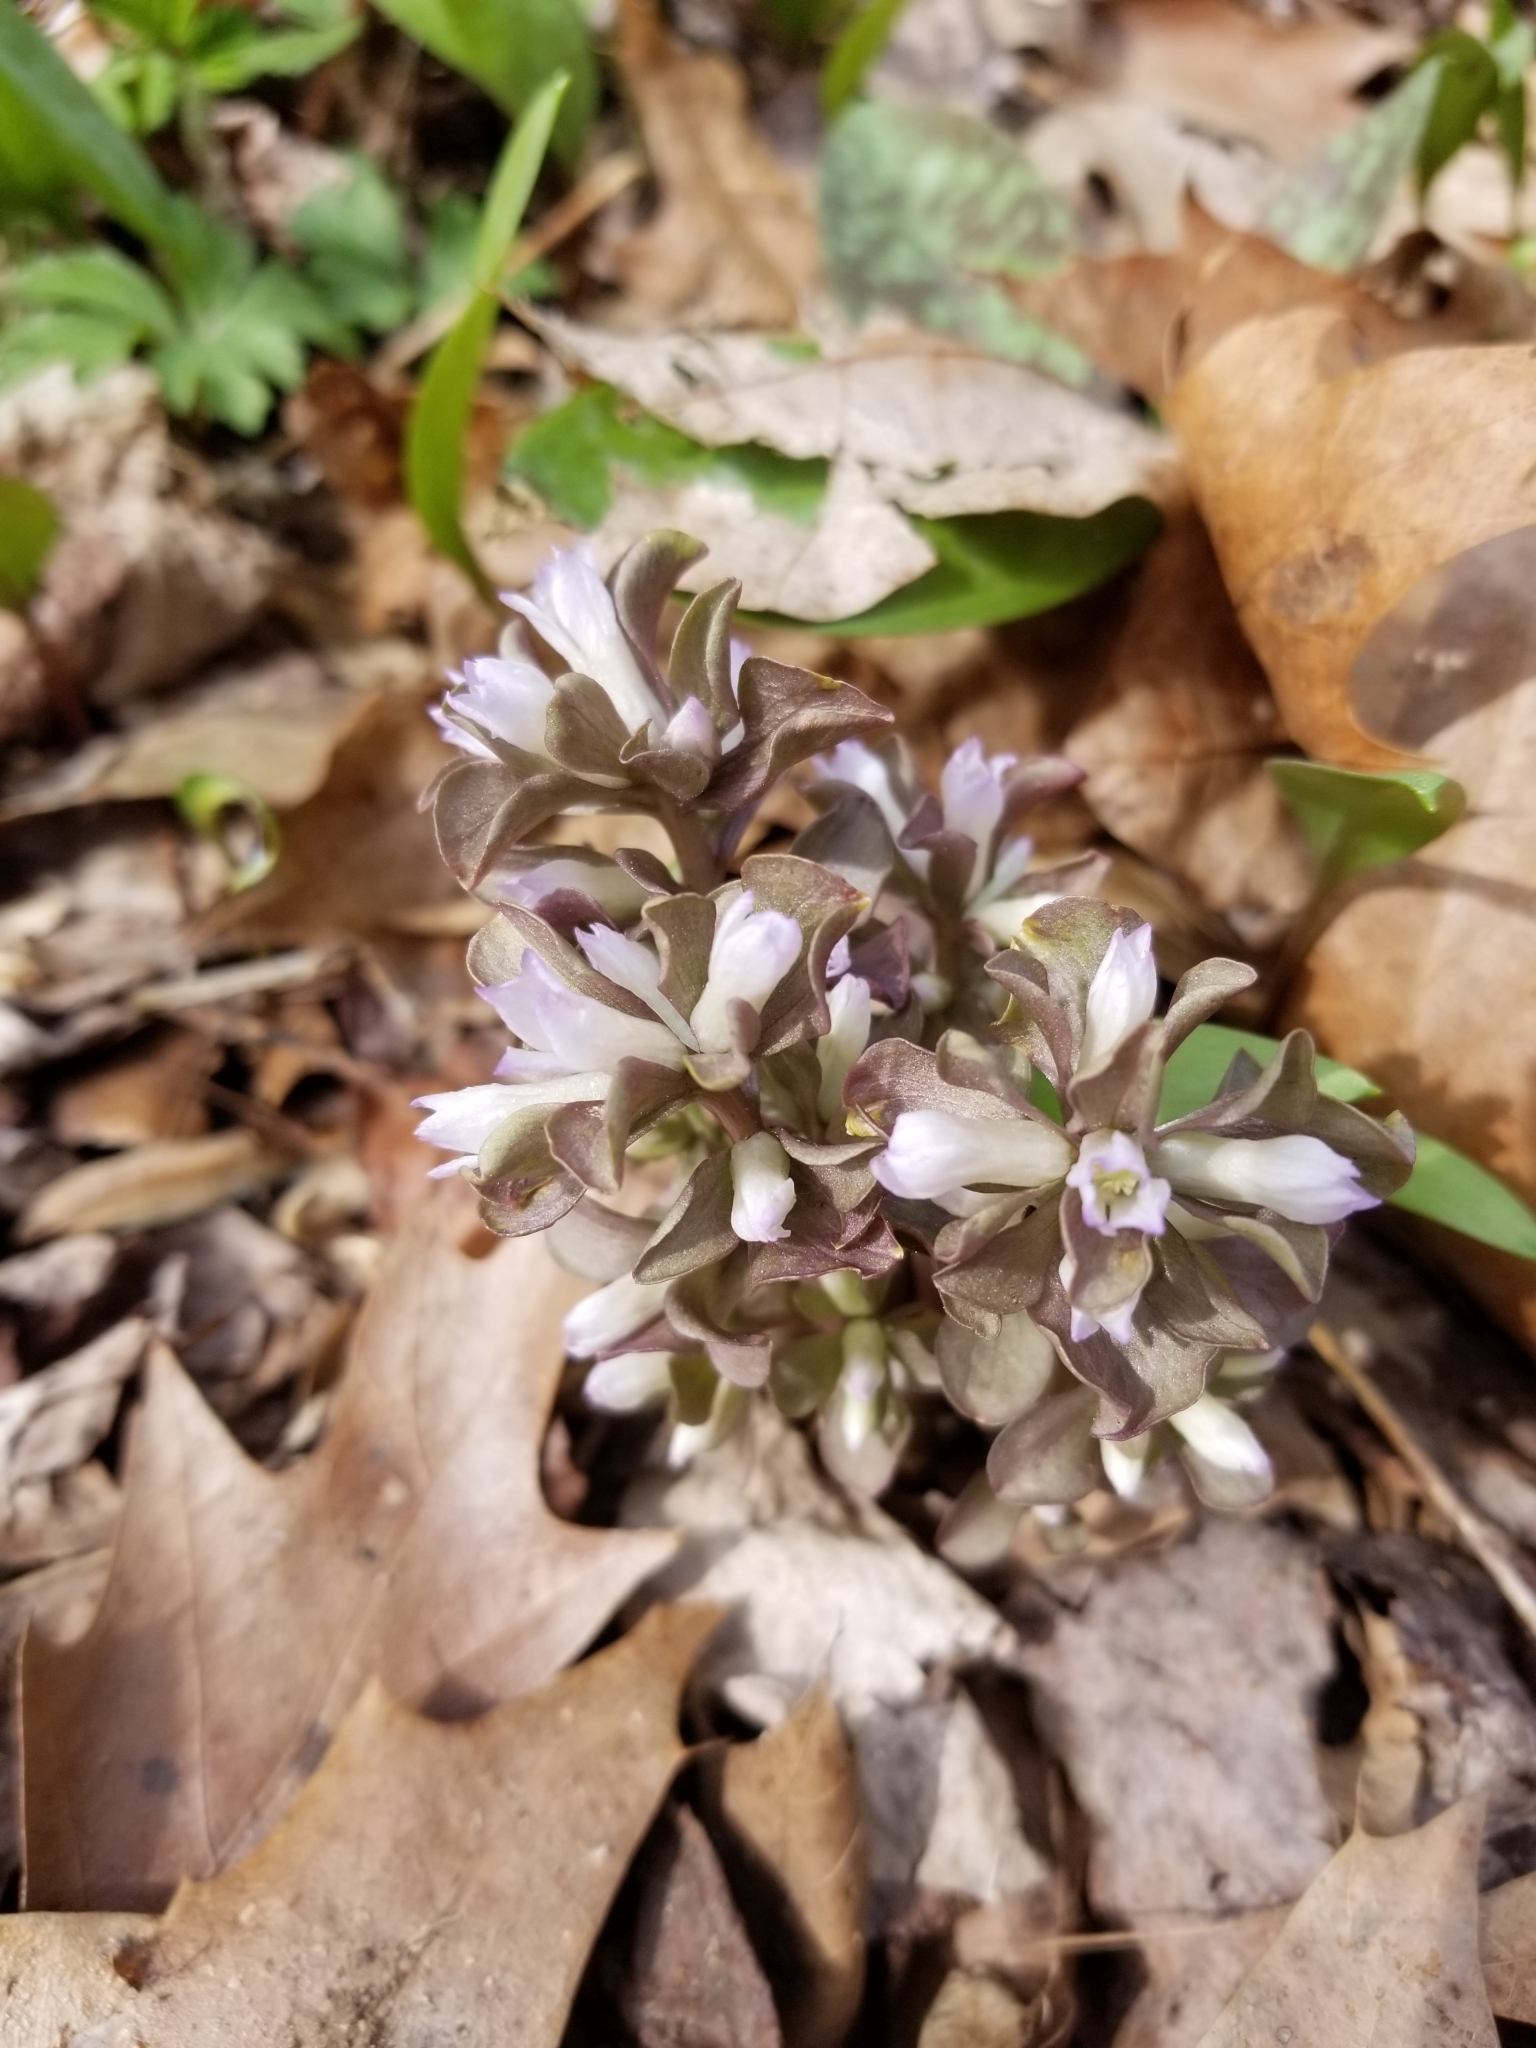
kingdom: Plantae
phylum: Tracheophyta
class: Magnoliopsida
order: Gentianales
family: Gentianaceae
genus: Obolaria
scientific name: Obolaria virginica
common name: Pennywort
